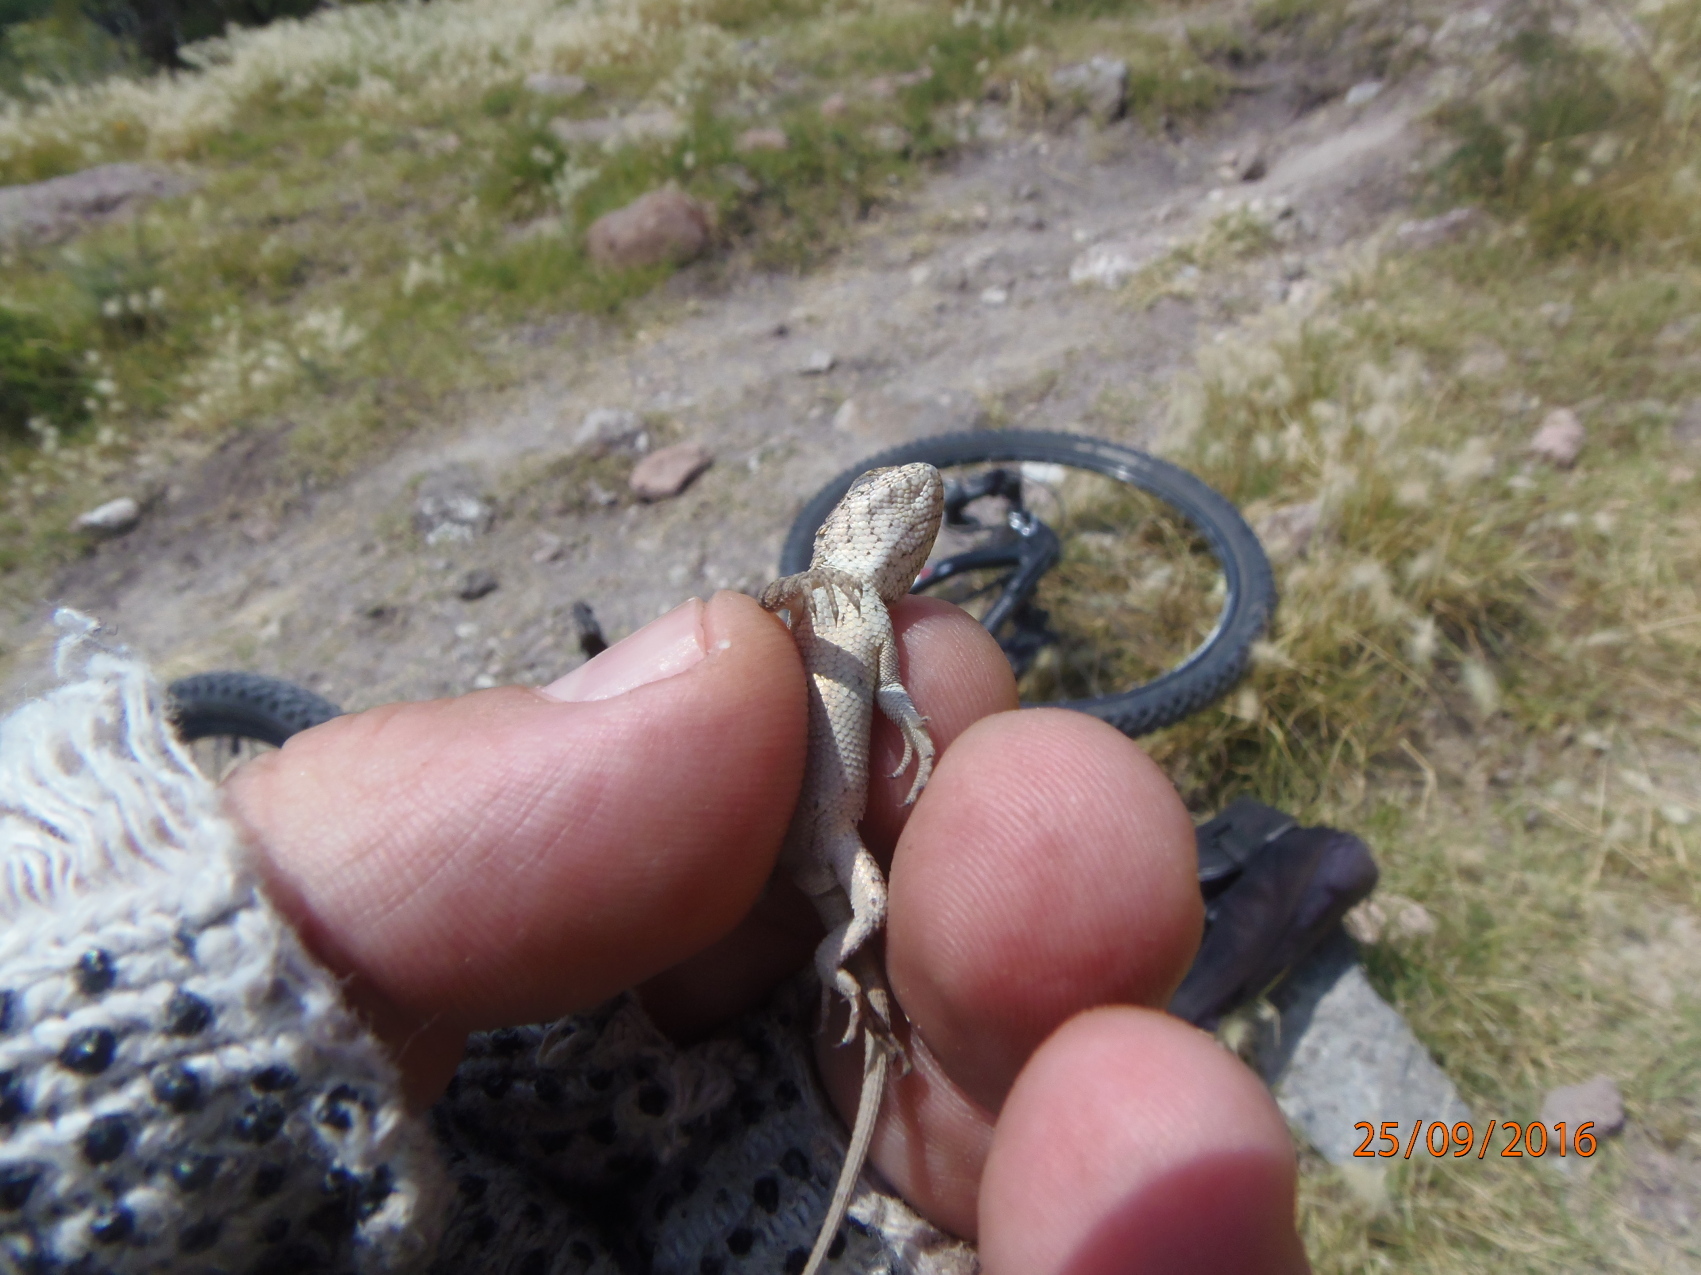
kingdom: Animalia
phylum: Chordata
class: Squamata
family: Phrynosomatidae
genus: Sceloporus
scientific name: Sceloporus spinosus
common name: Blue-spotted spiny lizard [caeruleopunctatus]
